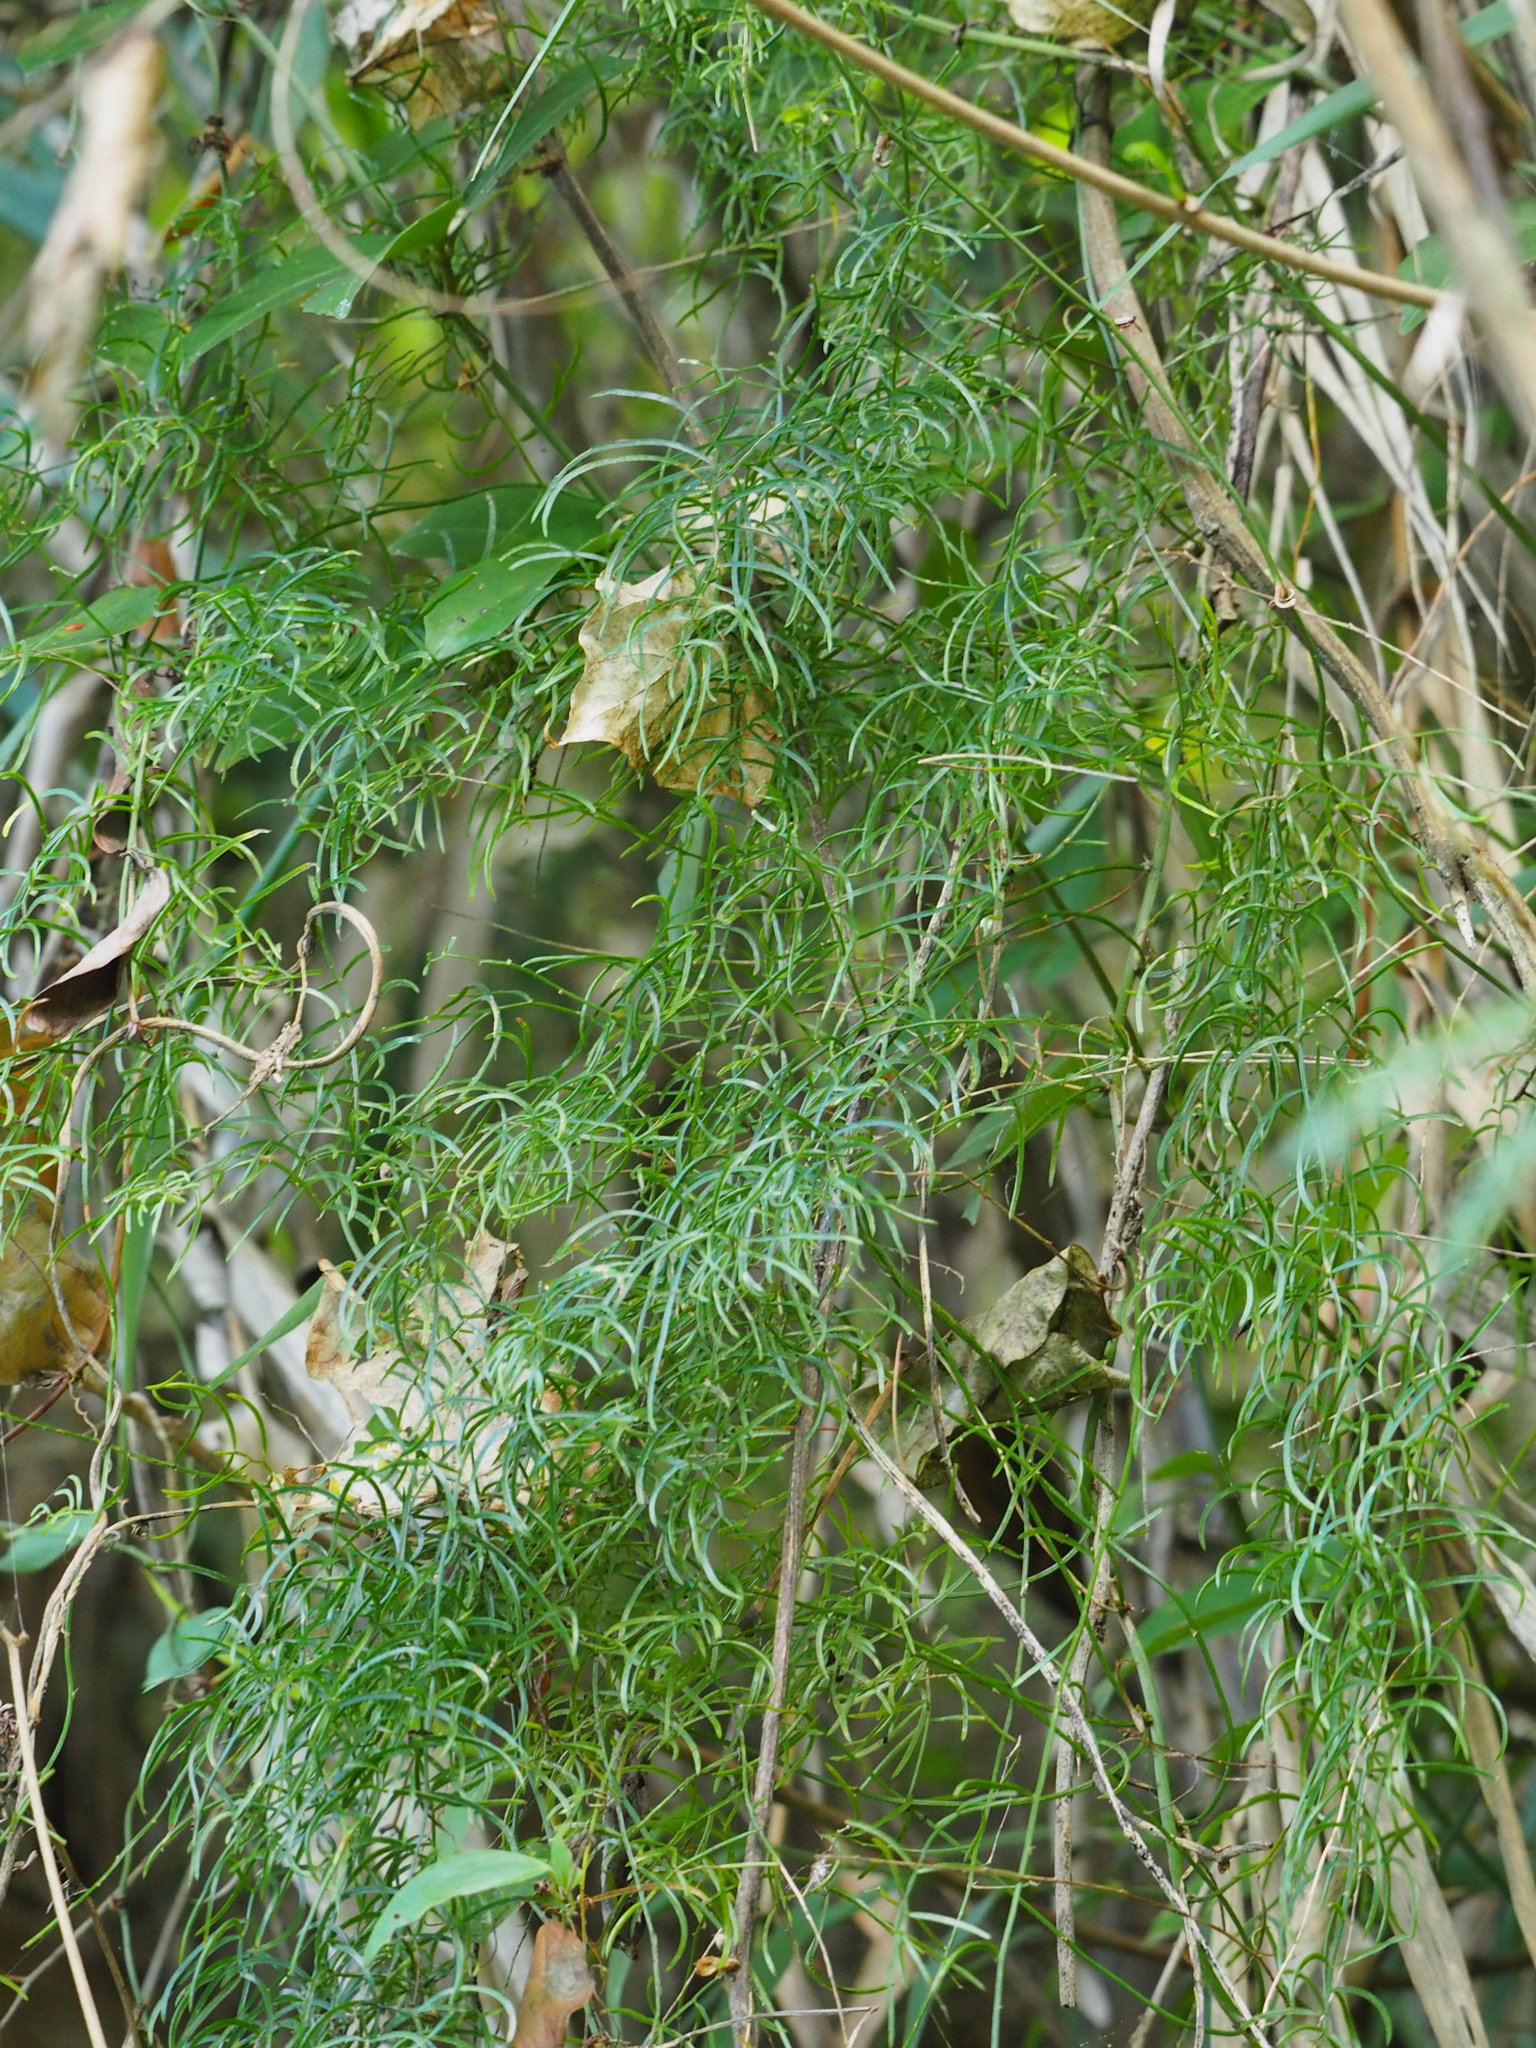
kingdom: Plantae
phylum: Tracheophyta
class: Liliopsida
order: Asparagales
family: Asparagaceae
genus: Asparagus
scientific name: Asparagus cochinchinensis
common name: Chinese asparagus
